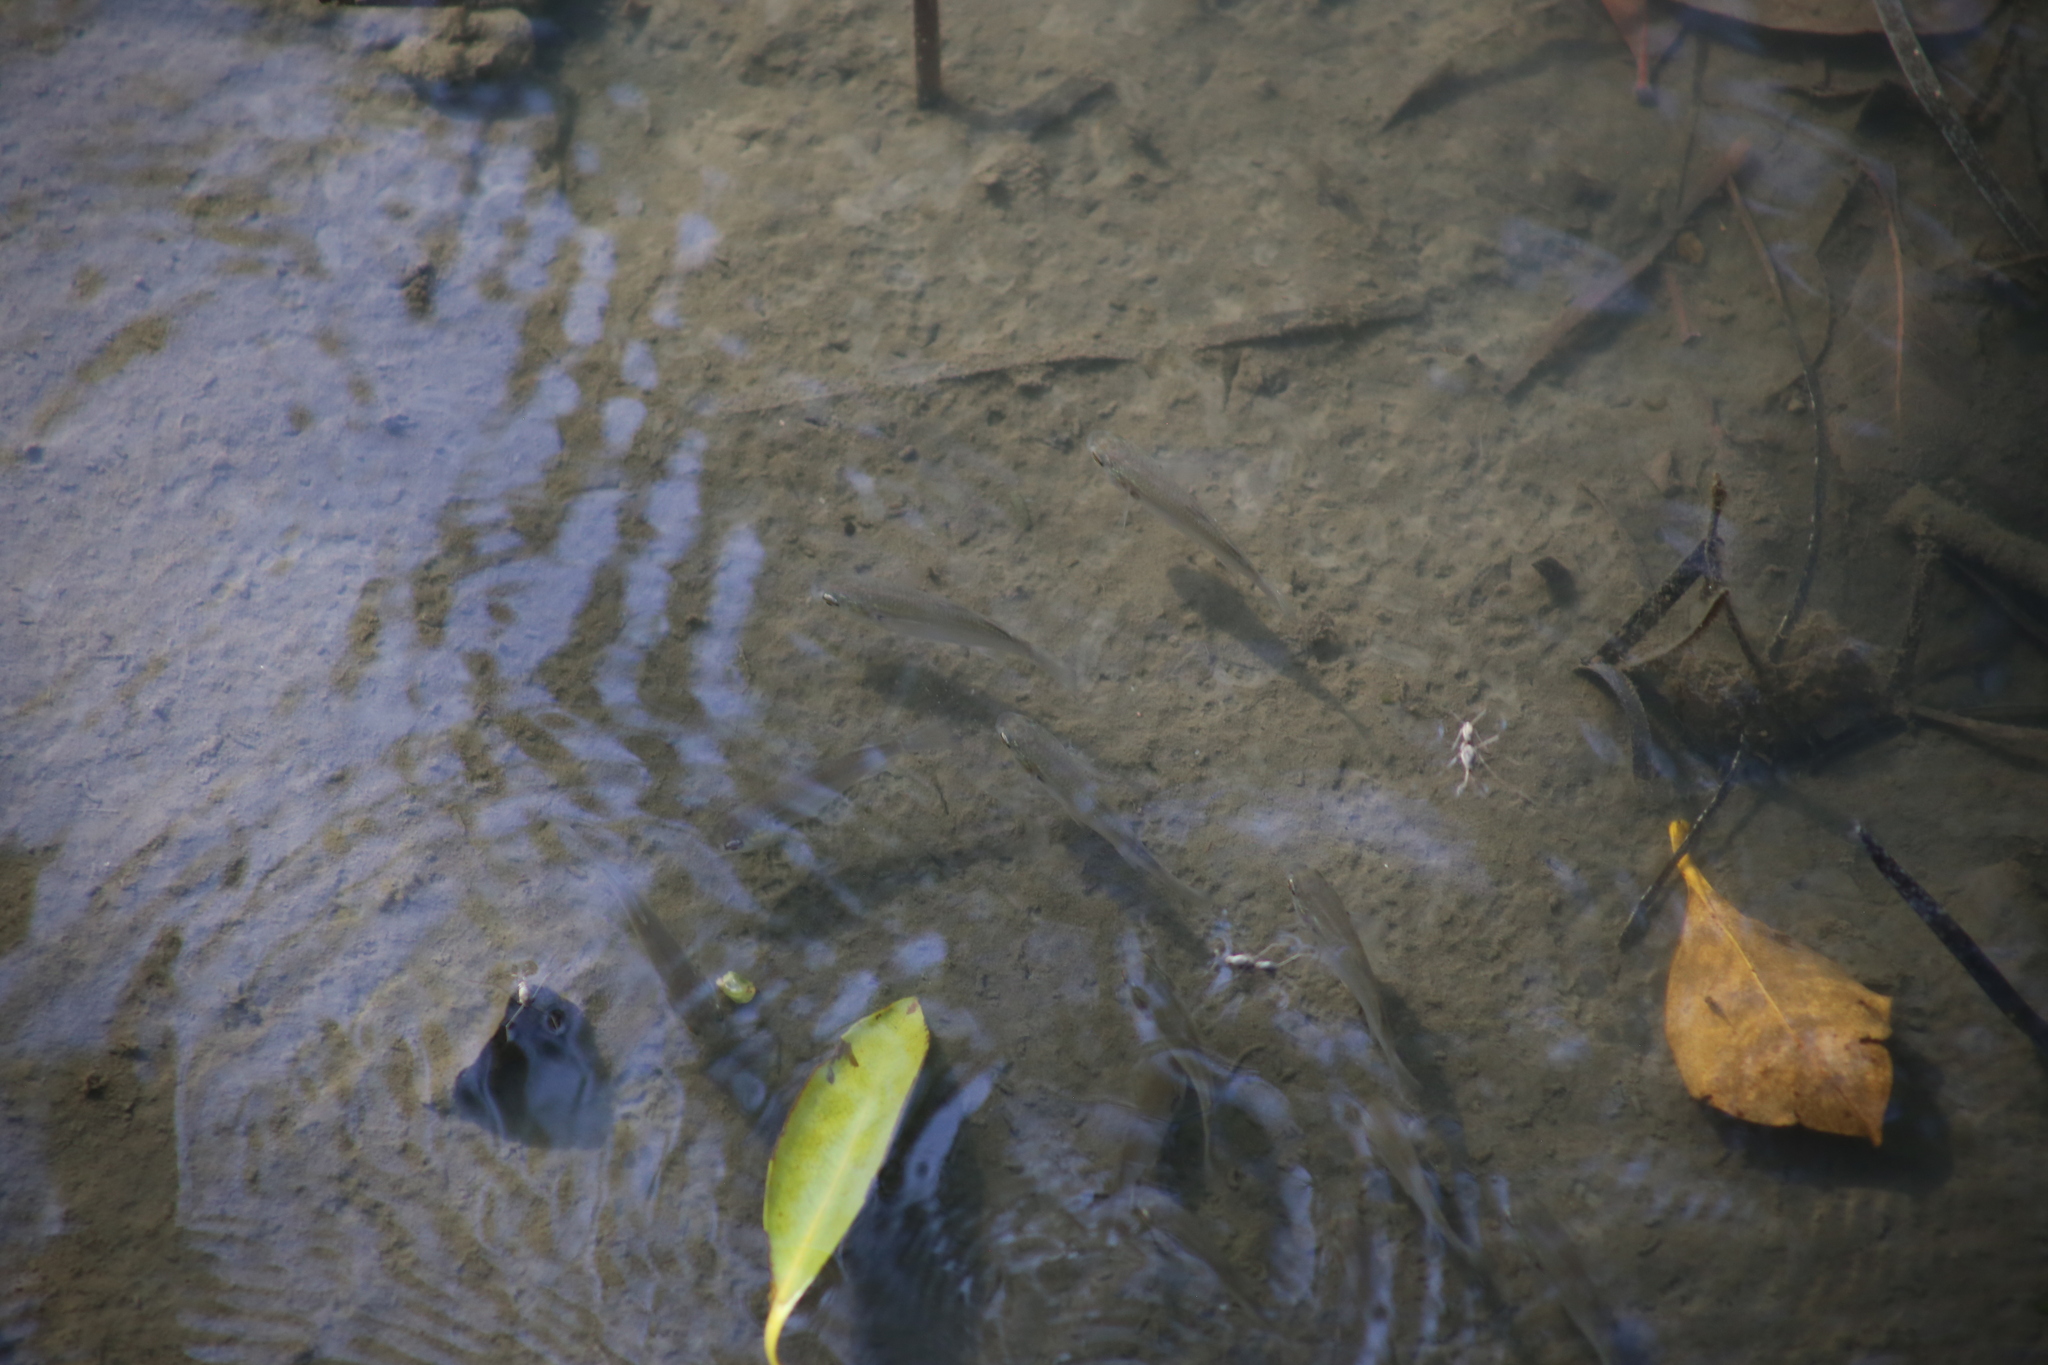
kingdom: Animalia
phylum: Arthropoda
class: Insecta
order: Hemiptera
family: Gerridae
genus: Halobates
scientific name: Halobates
